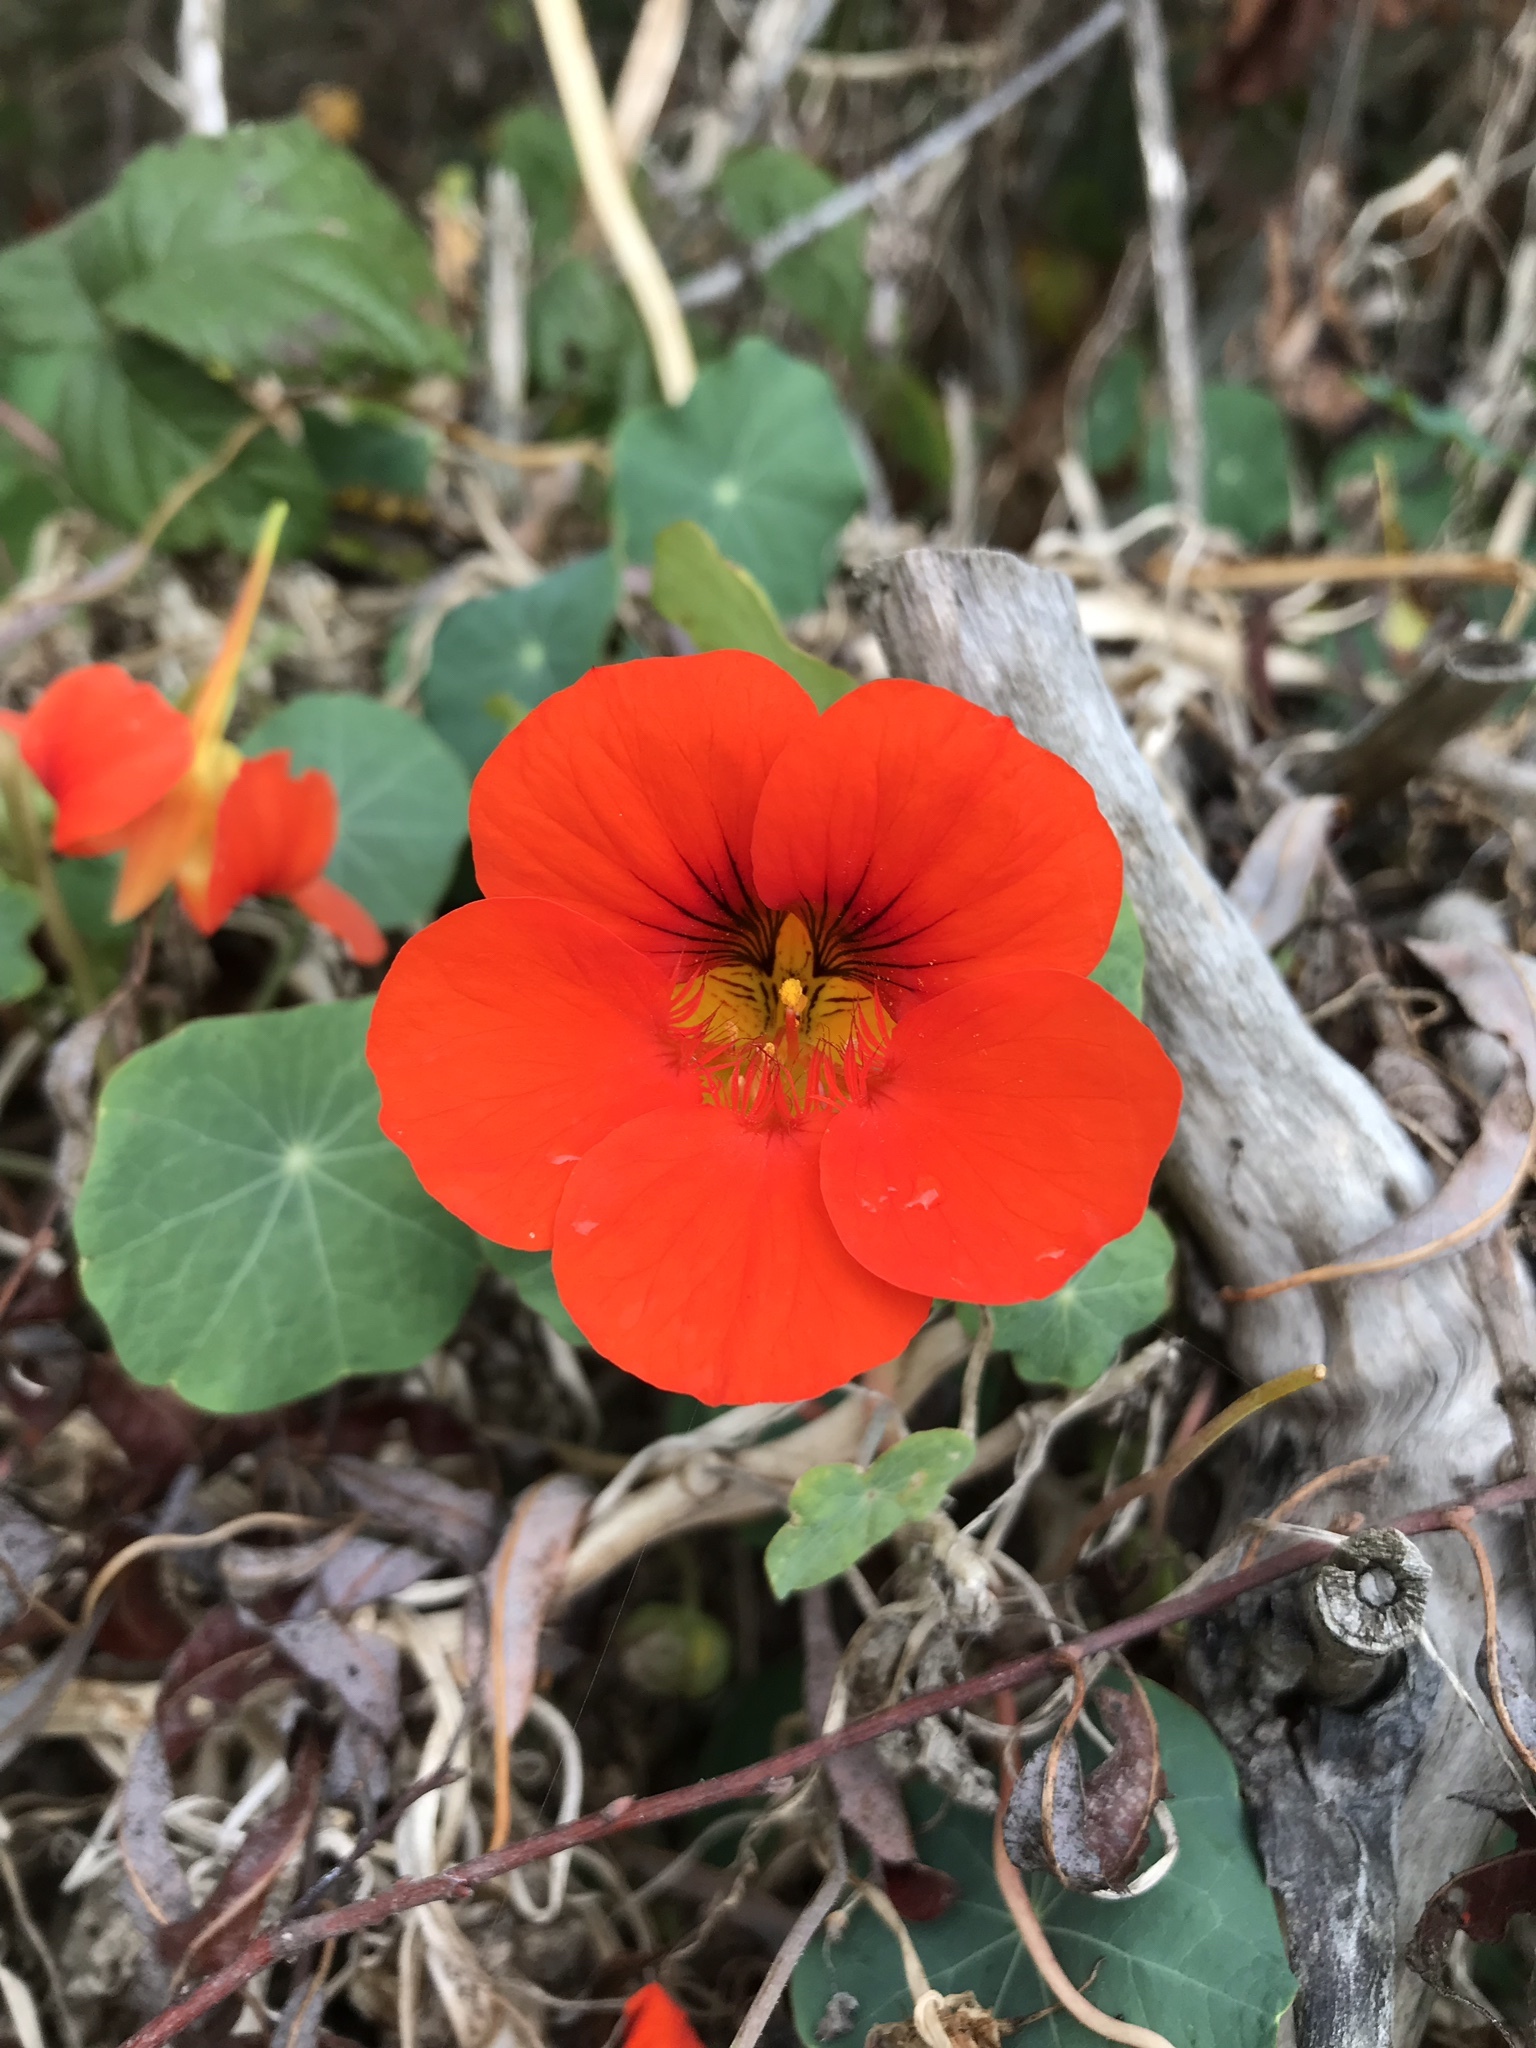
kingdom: Plantae
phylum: Tracheophyta
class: Magnoliopsida
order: Brassicales
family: Tropaeolaceae
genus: Tropaeolum
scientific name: Tropaeolum majus
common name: Nasturtium
